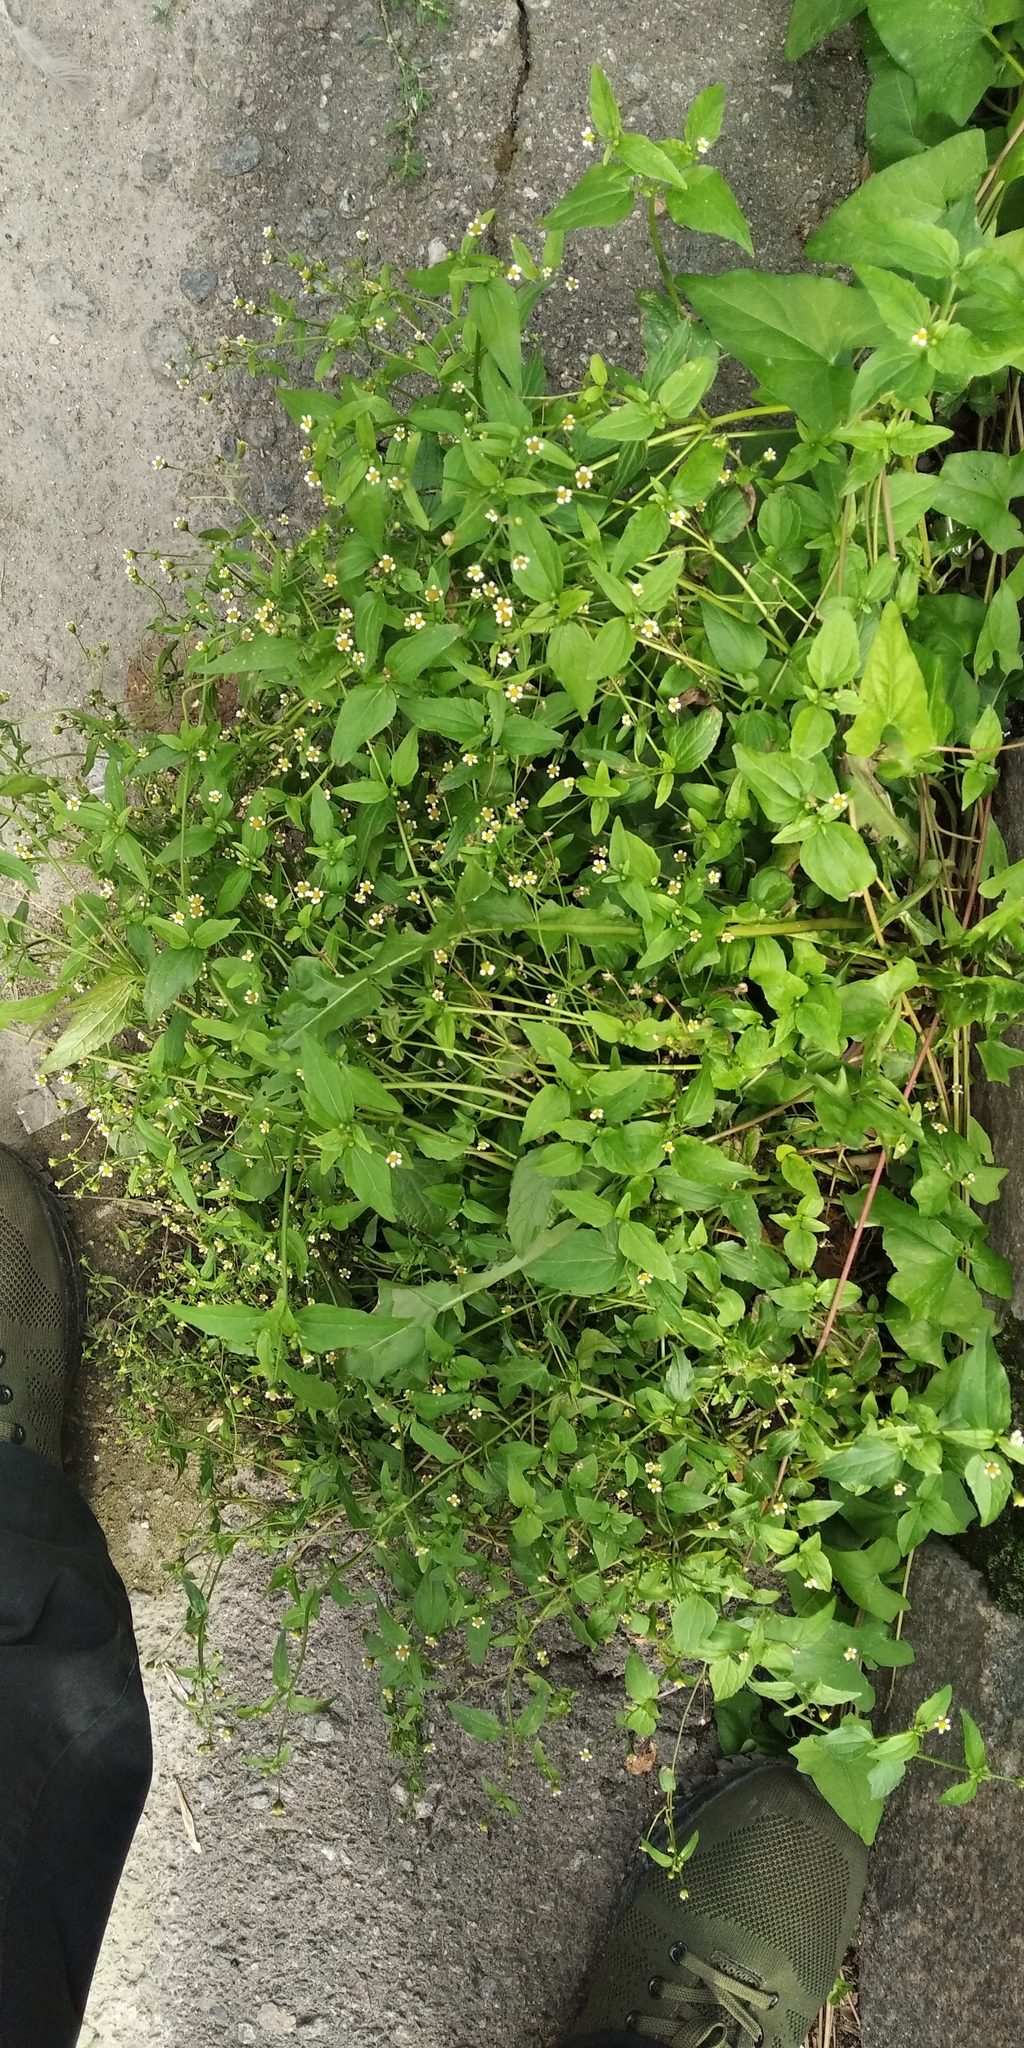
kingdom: Plantae
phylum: Tracheophyta
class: Magnoliopsida
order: Asterales
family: Asteraceae
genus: Galinsoga
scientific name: Galinsoga parviflora
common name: Gallant soldier
